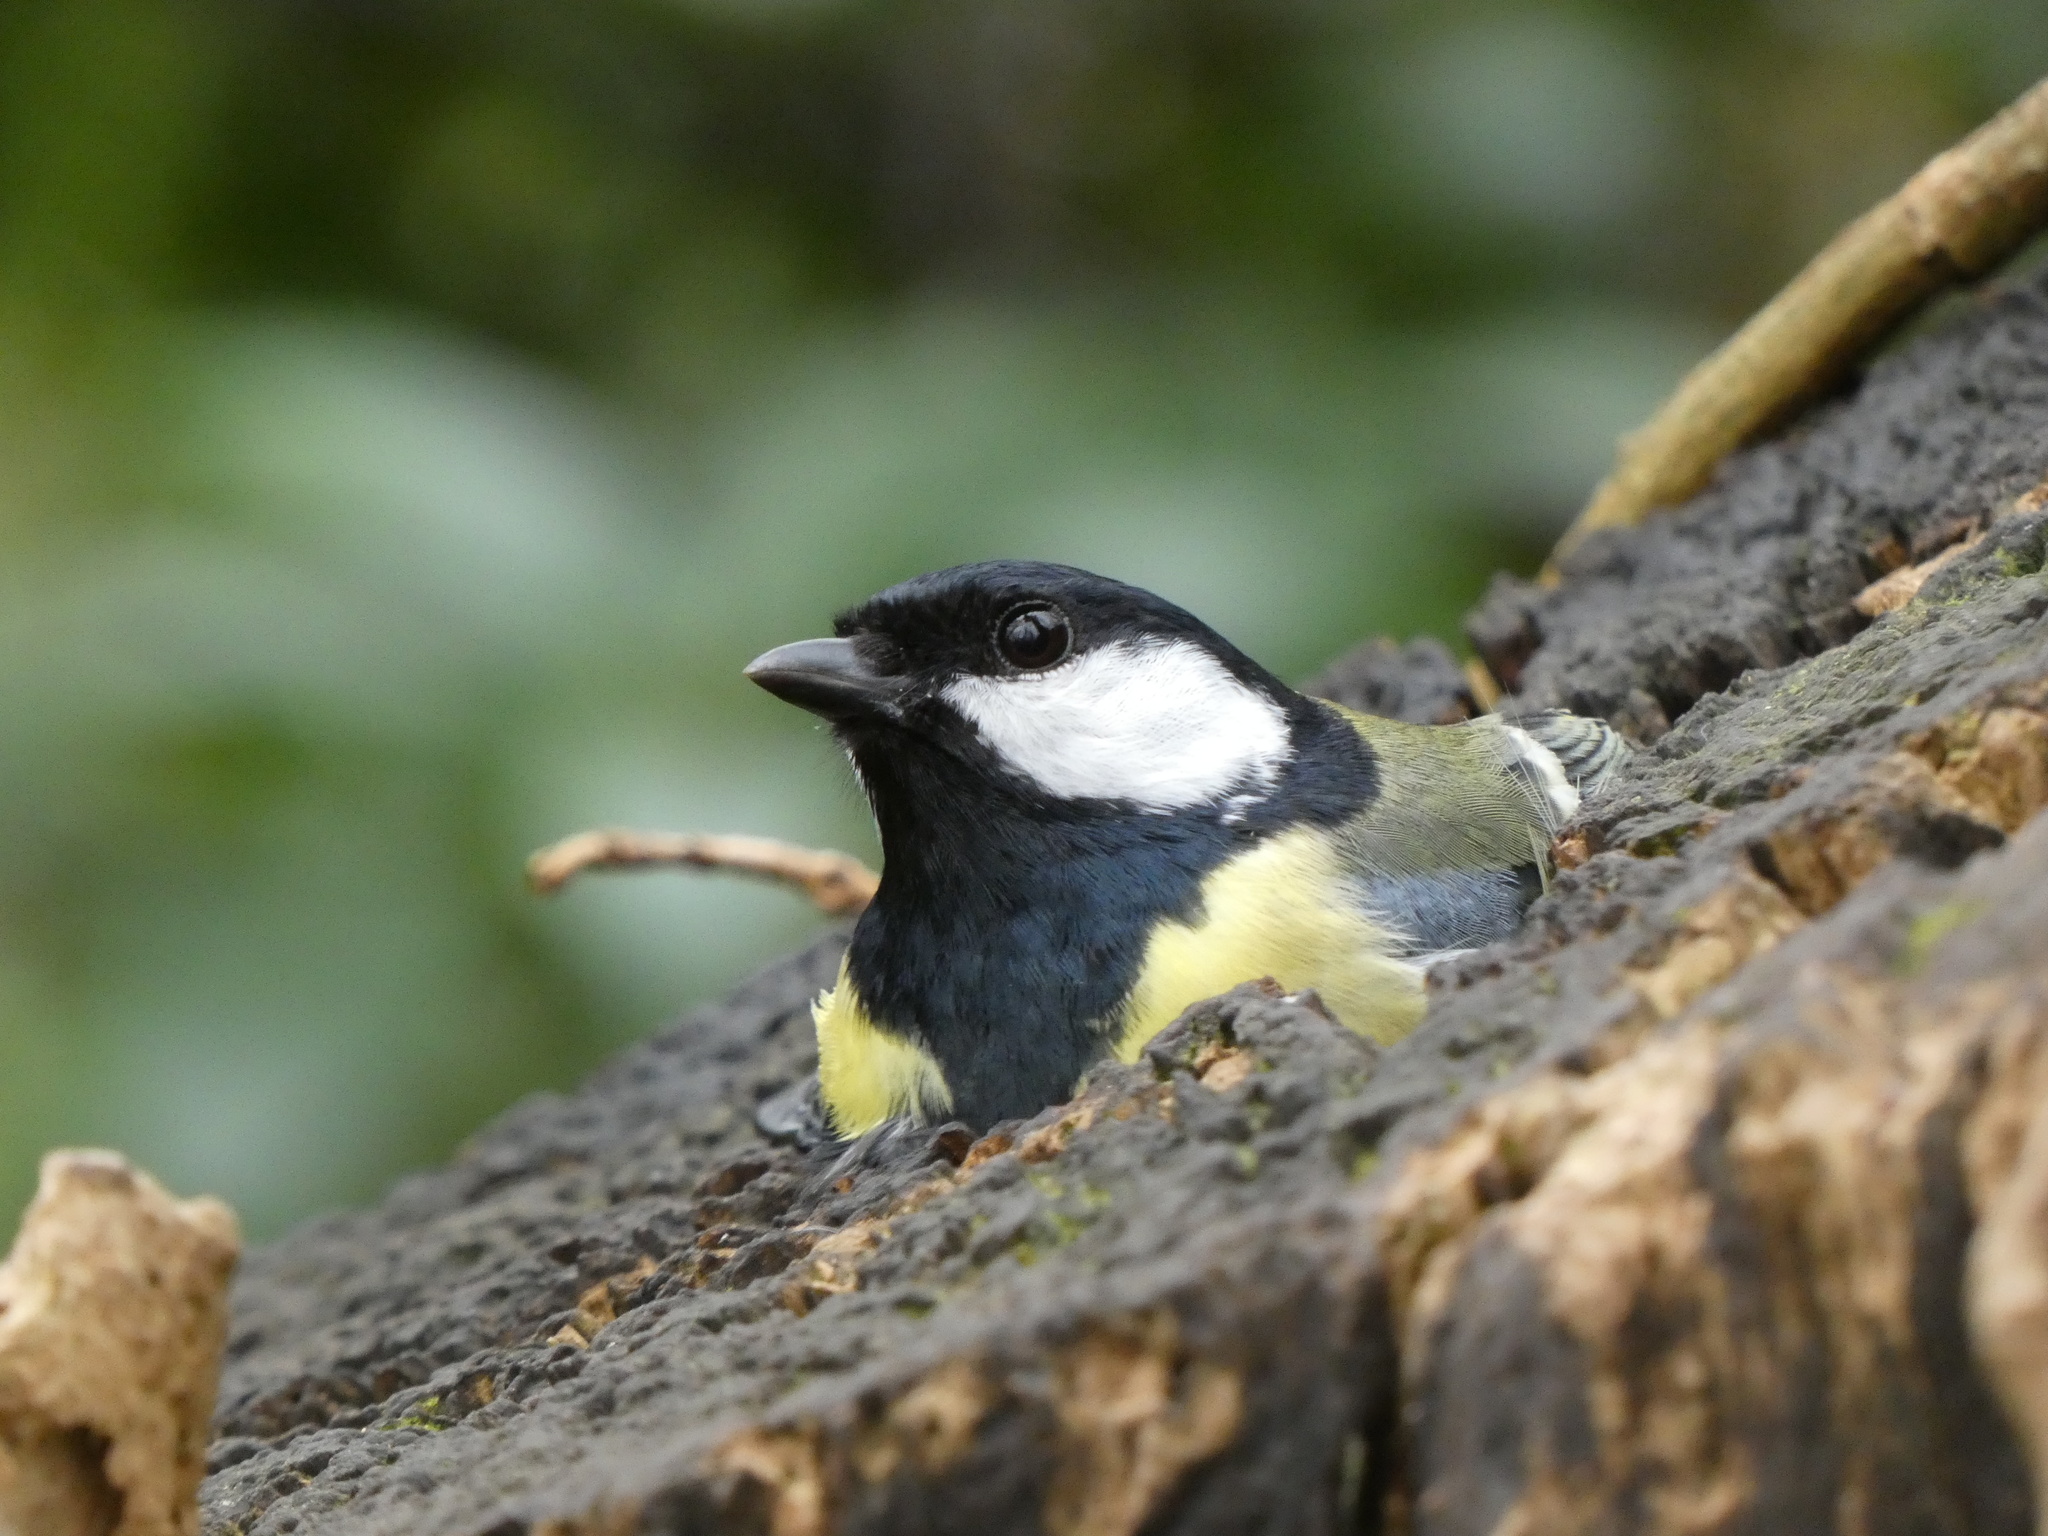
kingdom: Animalia
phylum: Chordata
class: Aves
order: Passeriformes
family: Paridae
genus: Parus
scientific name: Parus major
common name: Great tit
